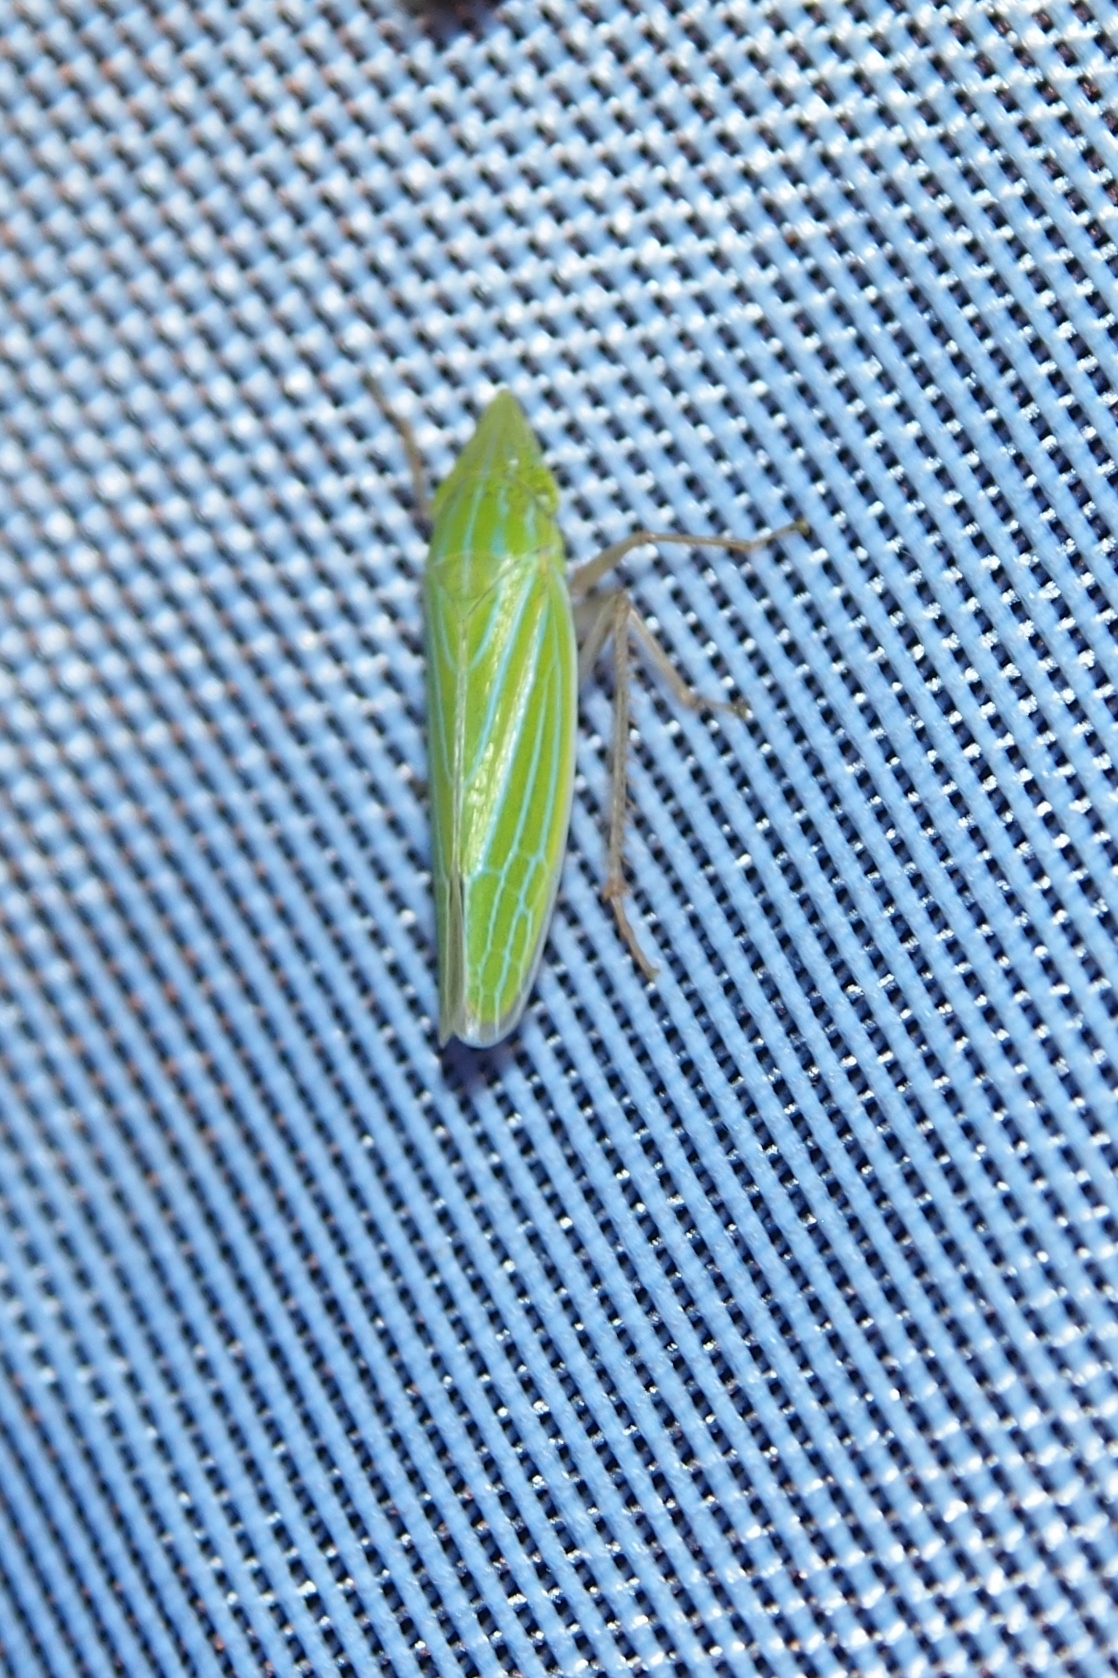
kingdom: Animalia
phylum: Arthropoda
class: Insecta
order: Hemiptera
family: Cicadellidae
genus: Draeculacephala
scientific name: Draeculacephala robinsoni
